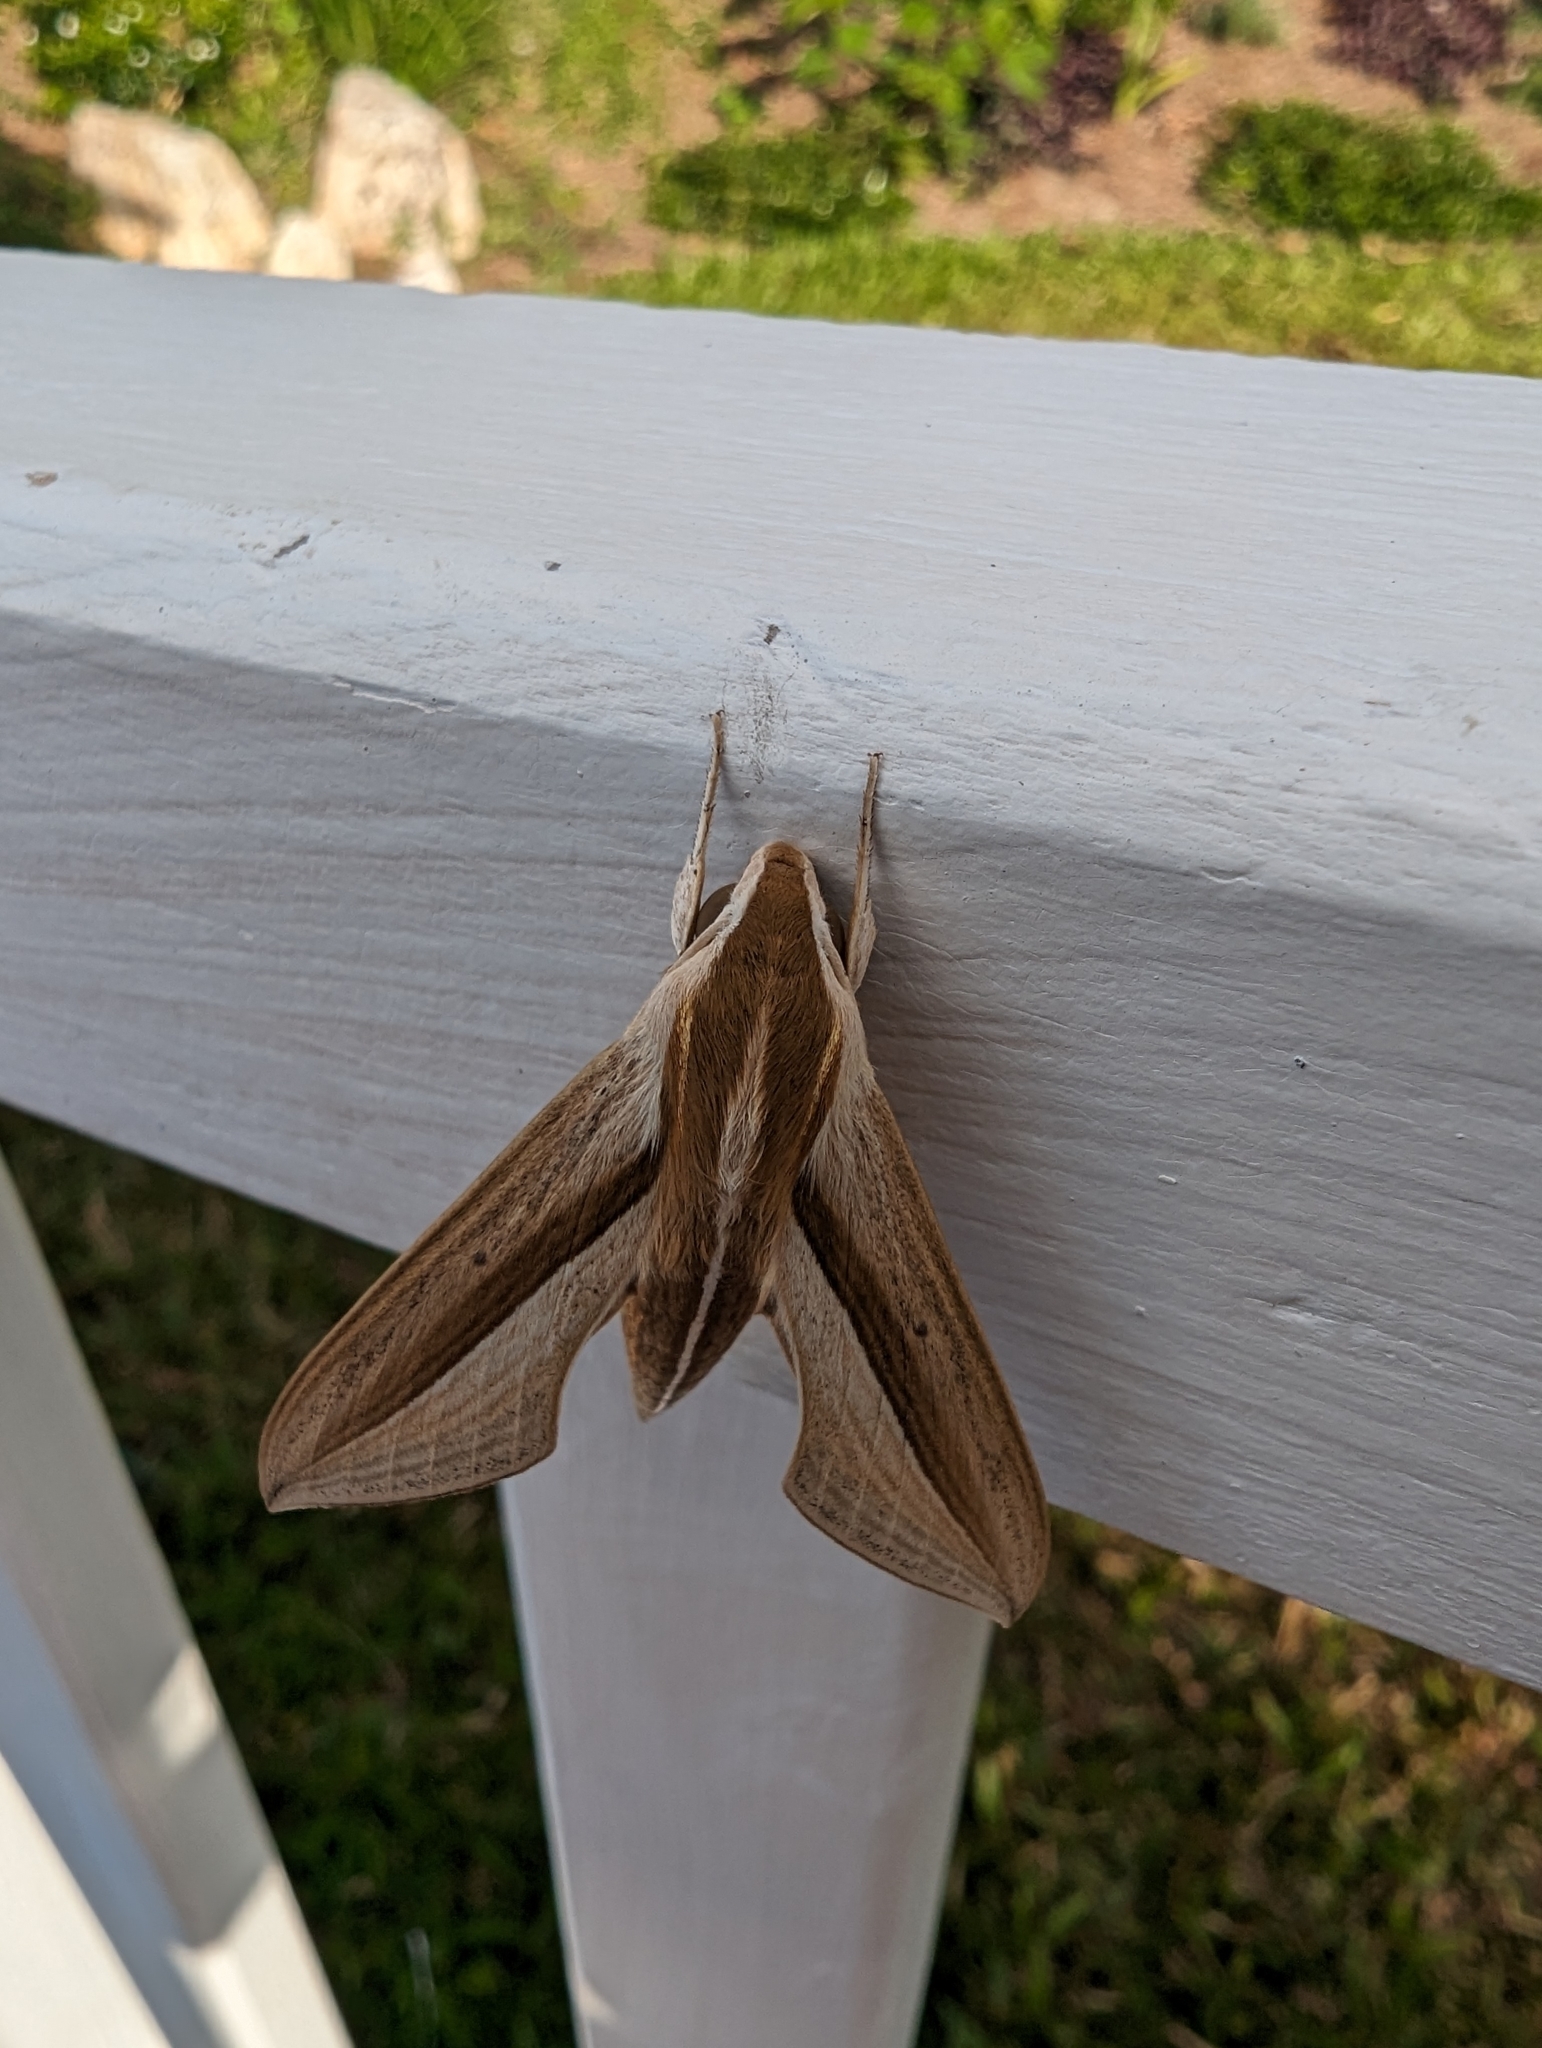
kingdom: Animalia
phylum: Arthropoda
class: Insecta
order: Lepidoptera
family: Sphingidae
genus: Theretra
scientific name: Theretra silhetensis
